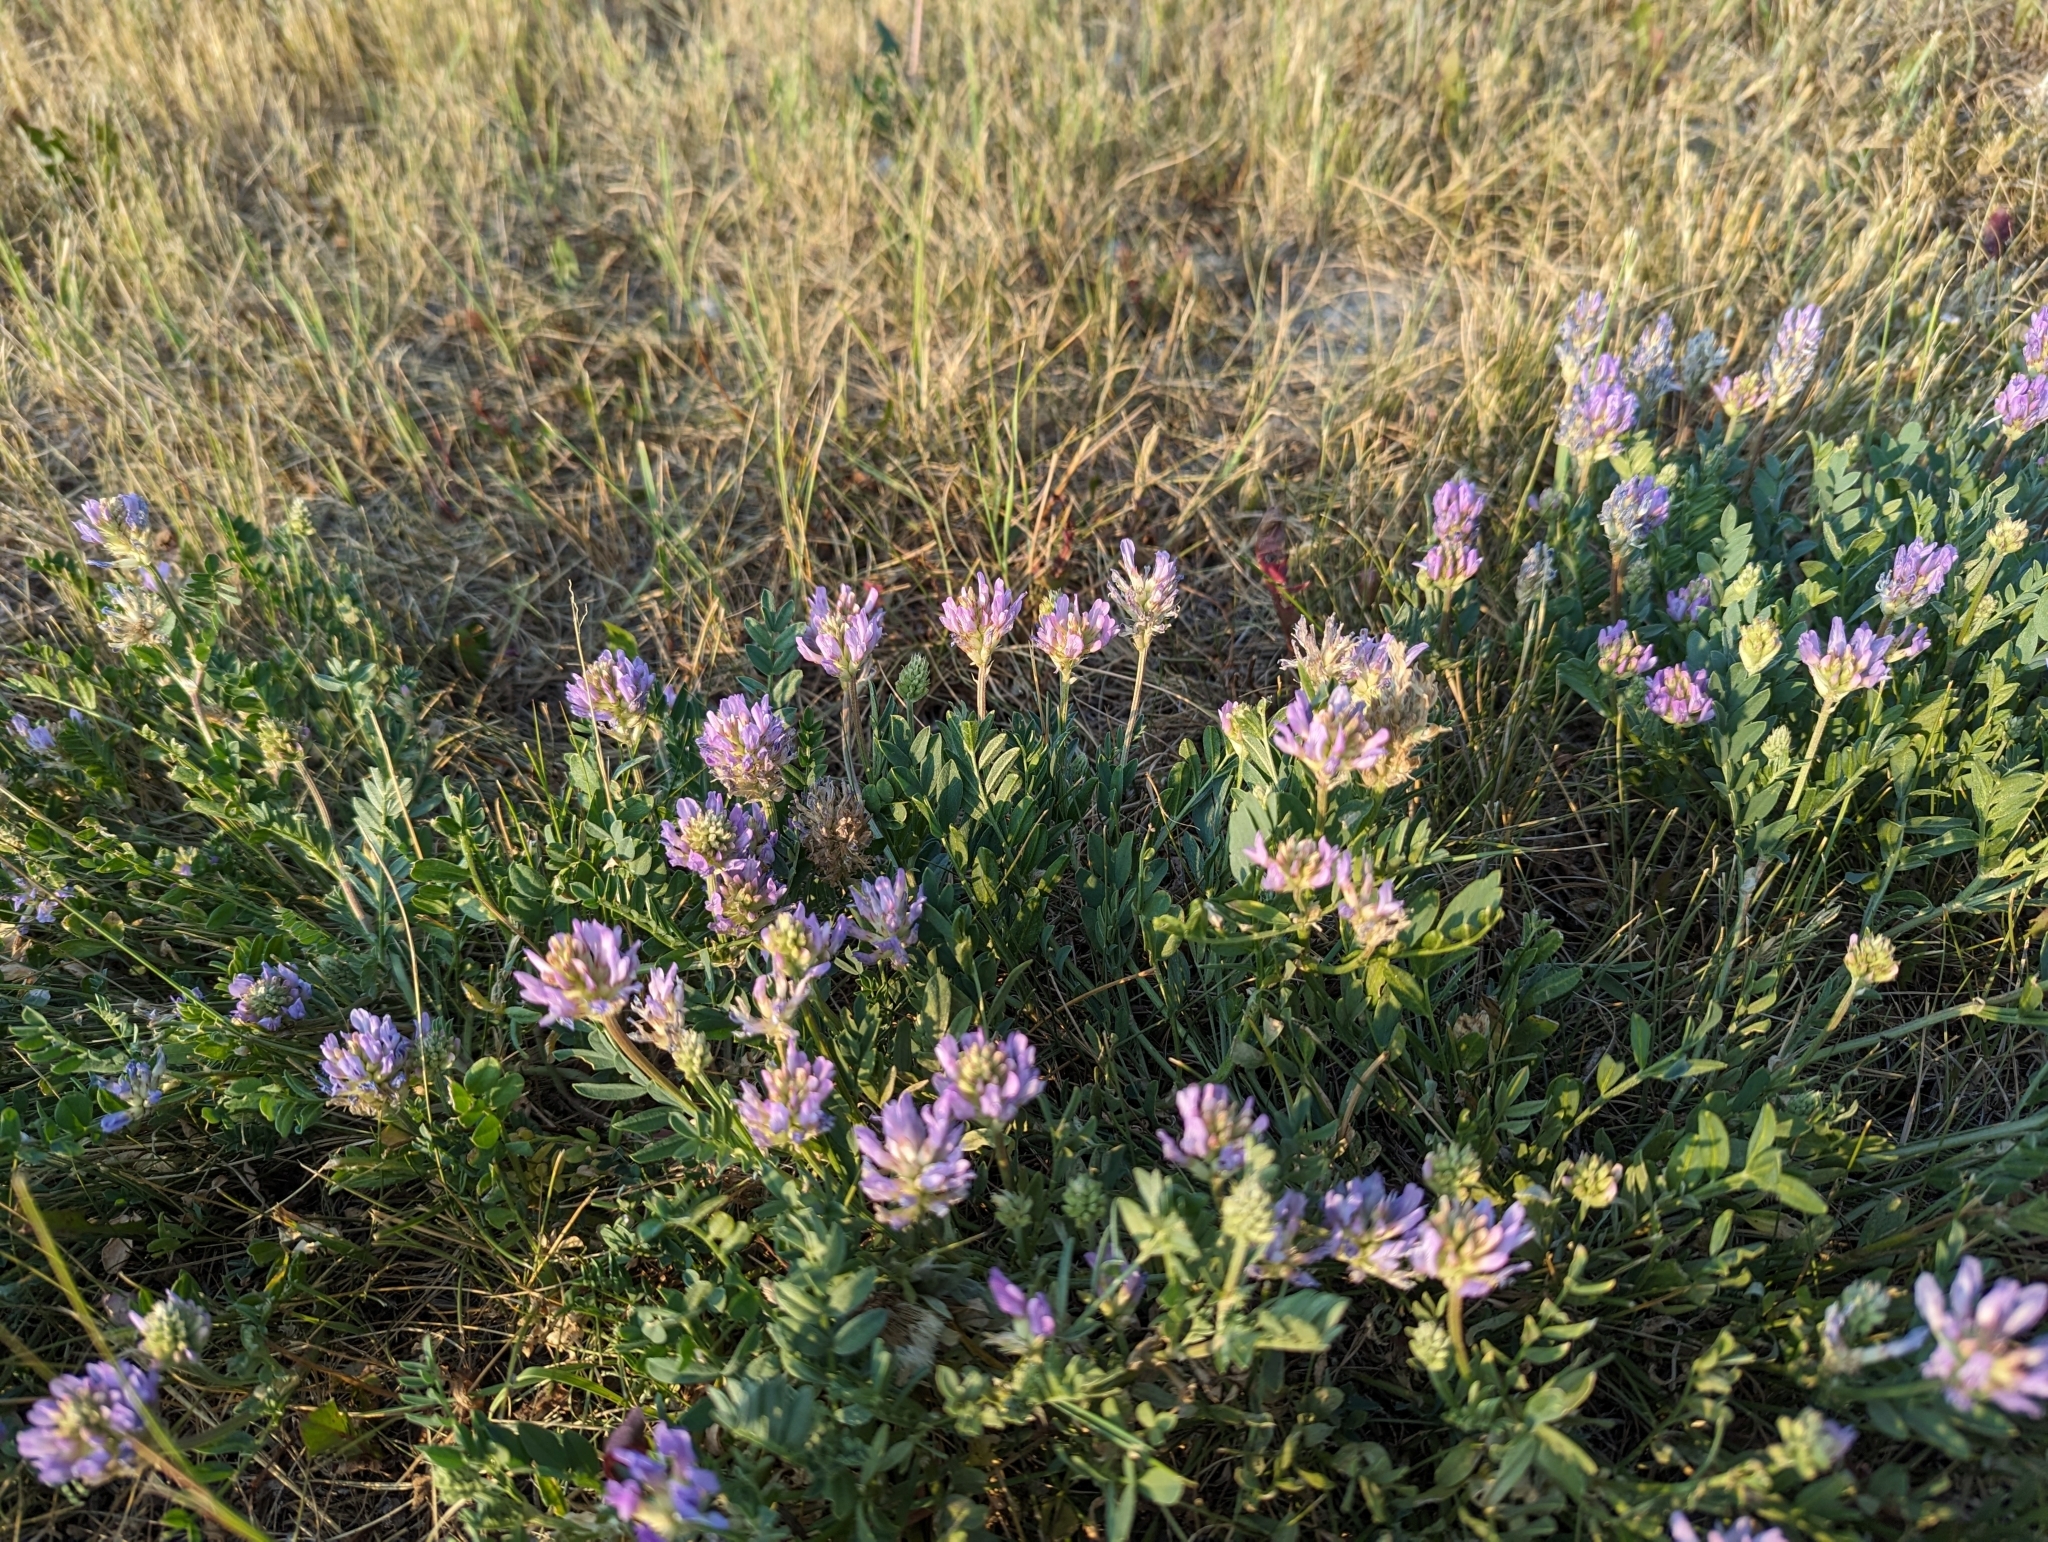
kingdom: Plantae
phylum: Tracheophyta
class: Magnoliopsida
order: Fabales
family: Fabaceae
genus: Astragalus
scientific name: Astragalus laxmannii
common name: Laxmann's milk-vetch
